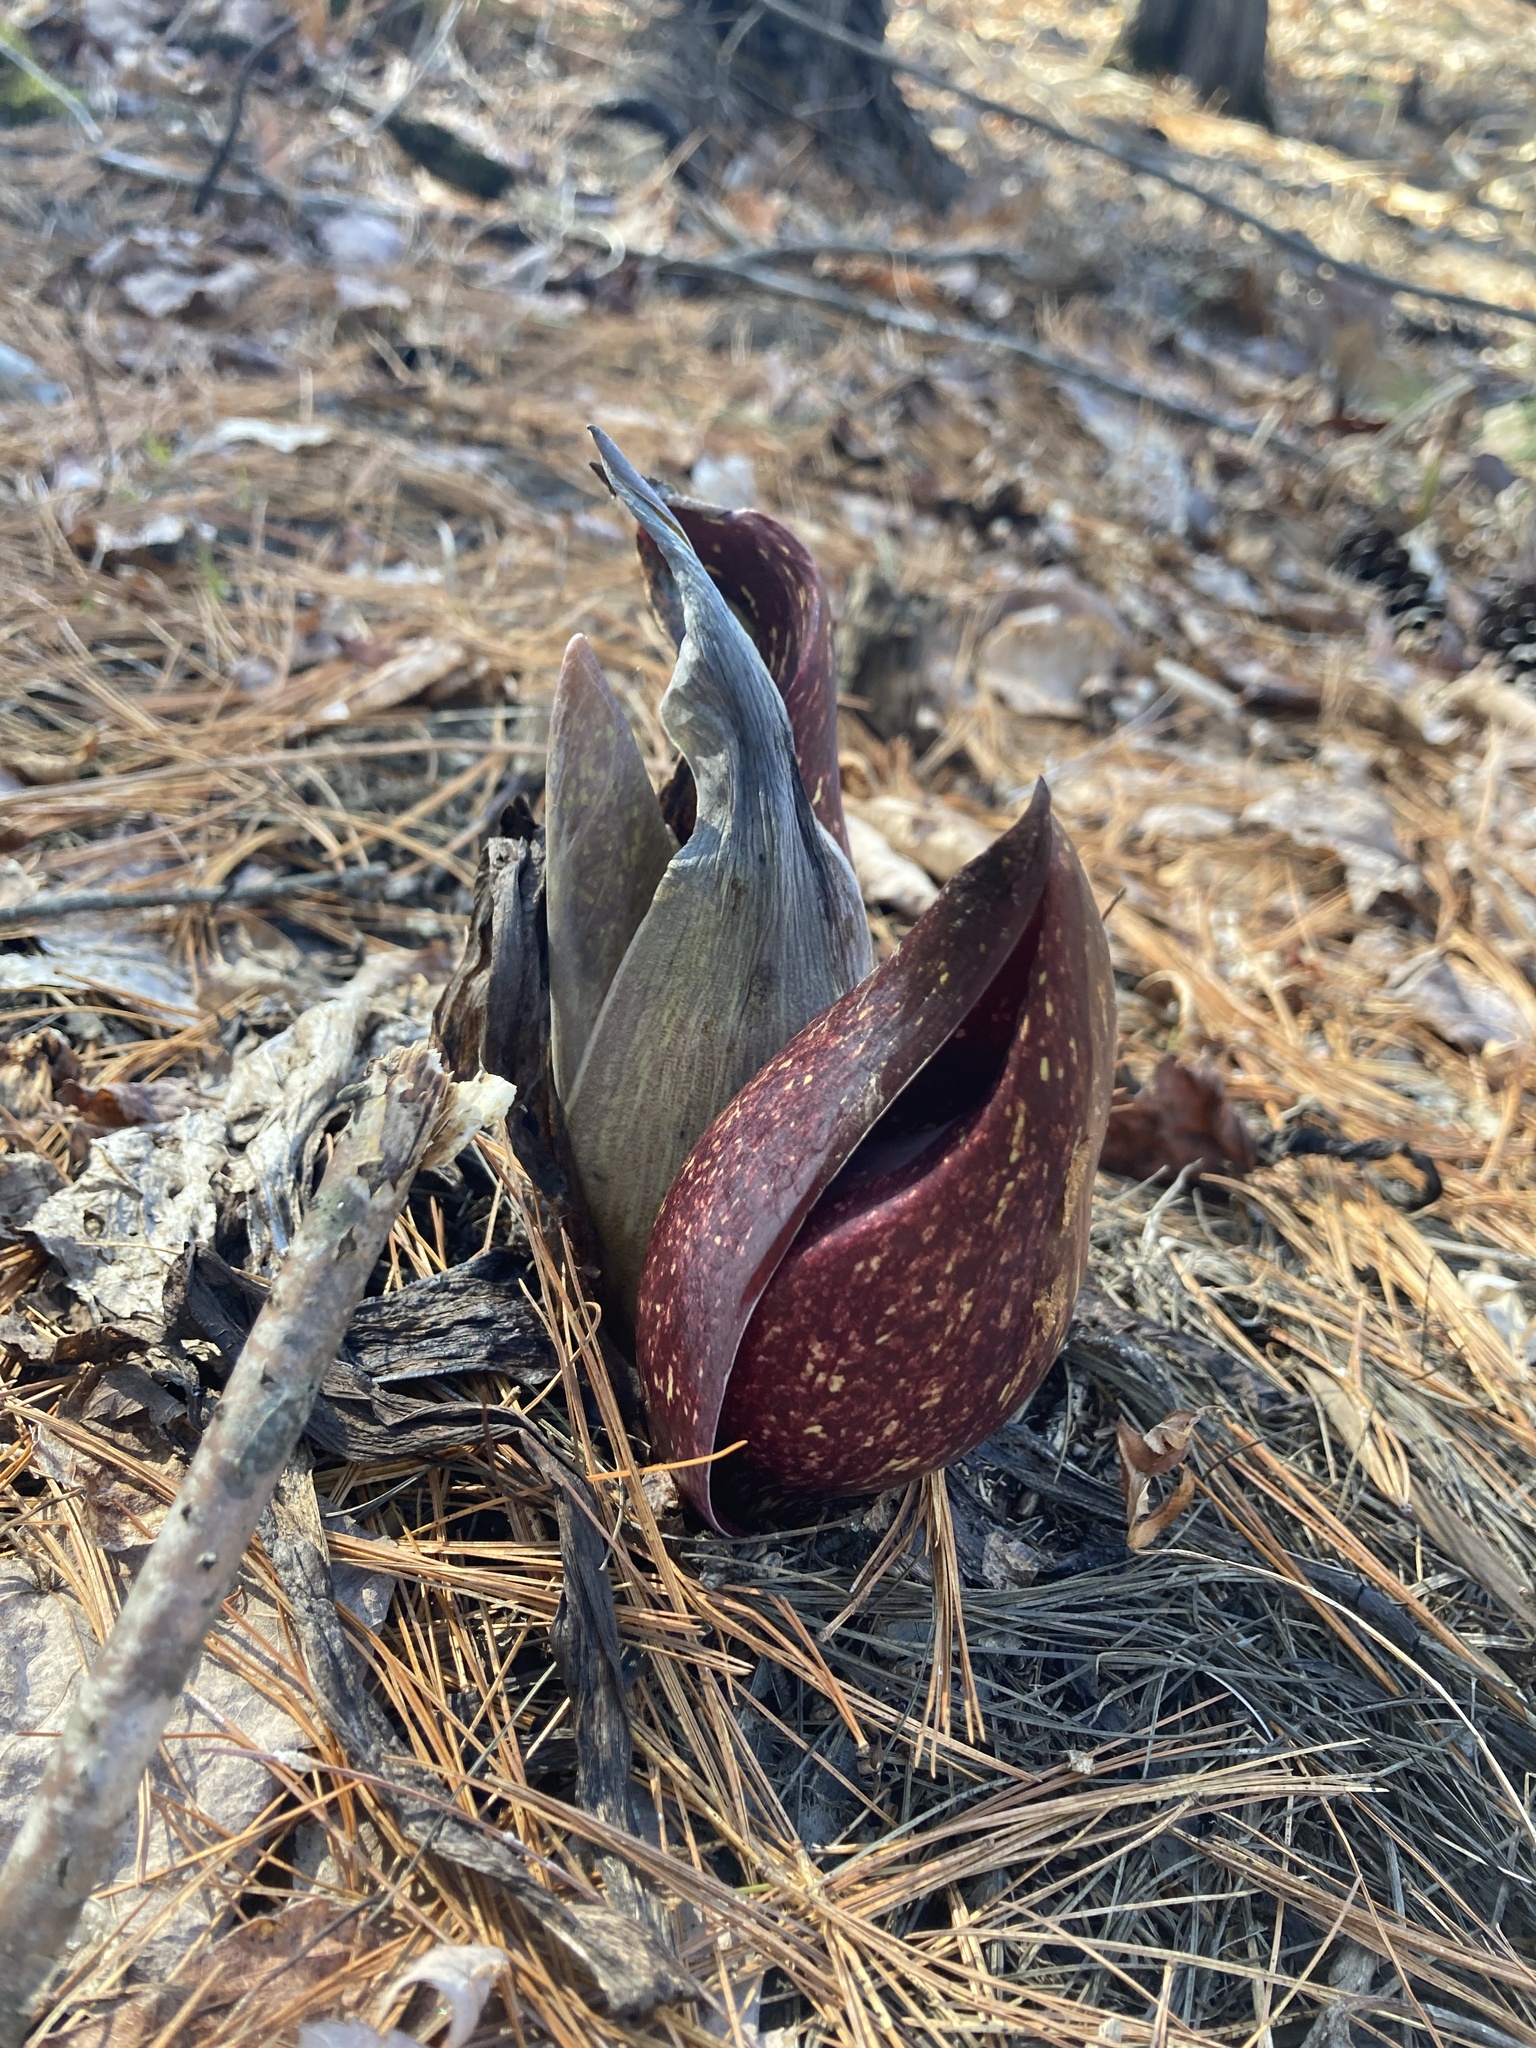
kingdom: Plantae
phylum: Tracheophyta
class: Liliopsida
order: Alismatales
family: Araceae
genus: Symplocarpus
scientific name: Symplocarpus foetidus
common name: Eastern skunk cabbage
